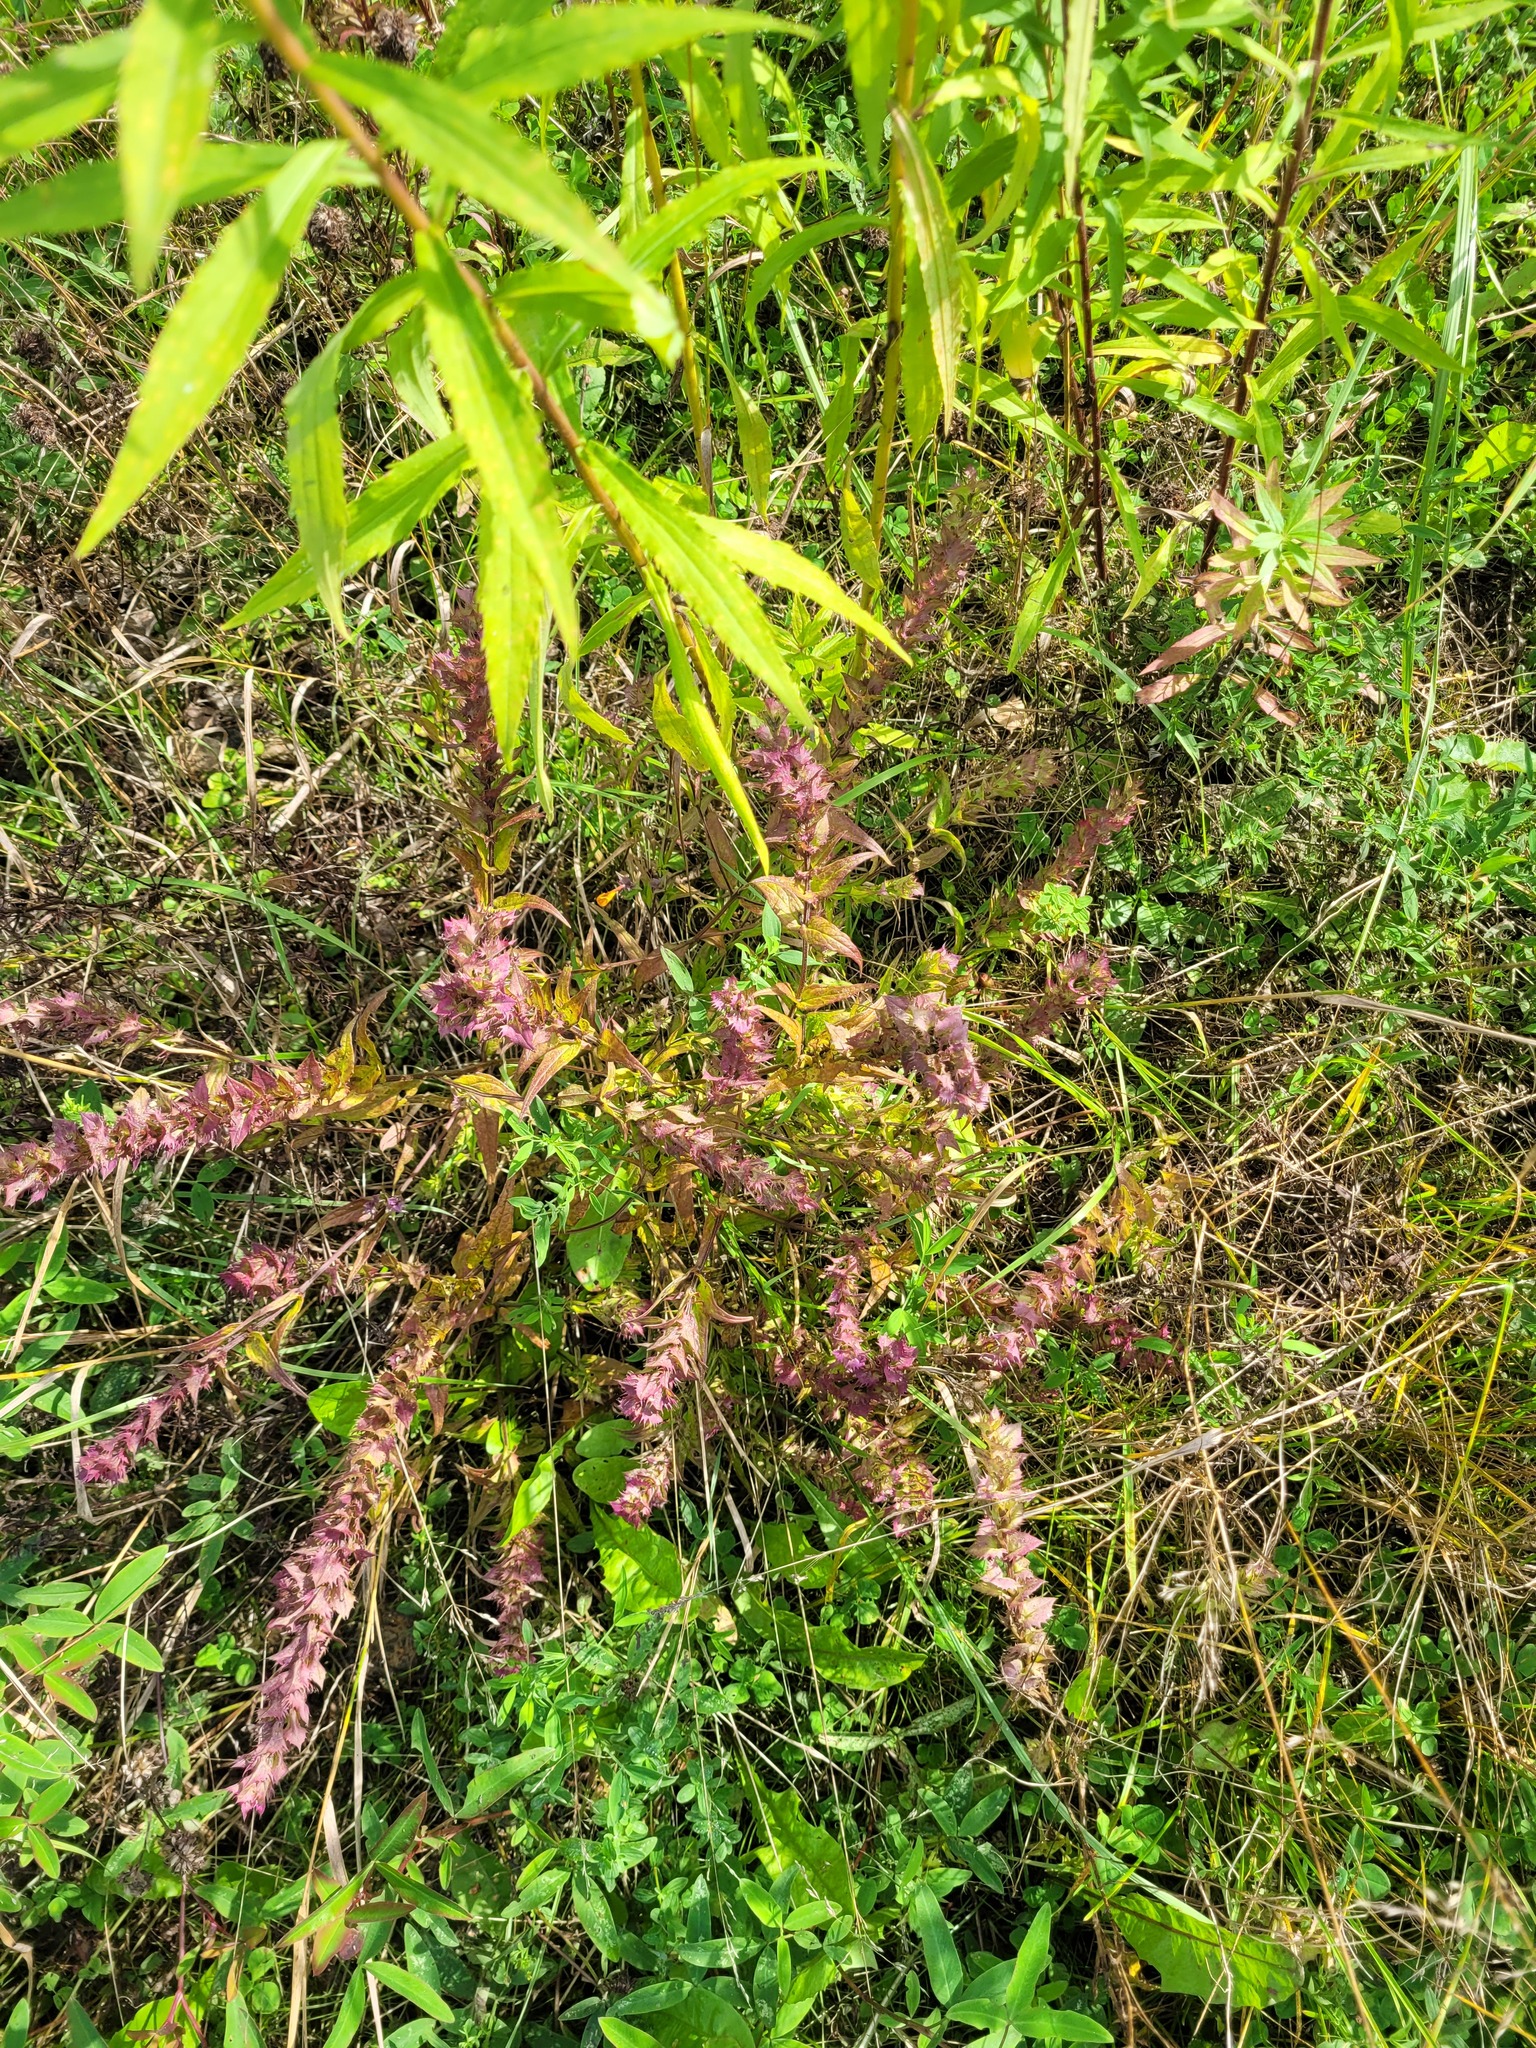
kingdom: Plantae
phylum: Tracheophyta
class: Magnoliopsida
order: Lamiales
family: Orobanchaceae
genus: Melampyrum
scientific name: Melampyrum nemorosum
